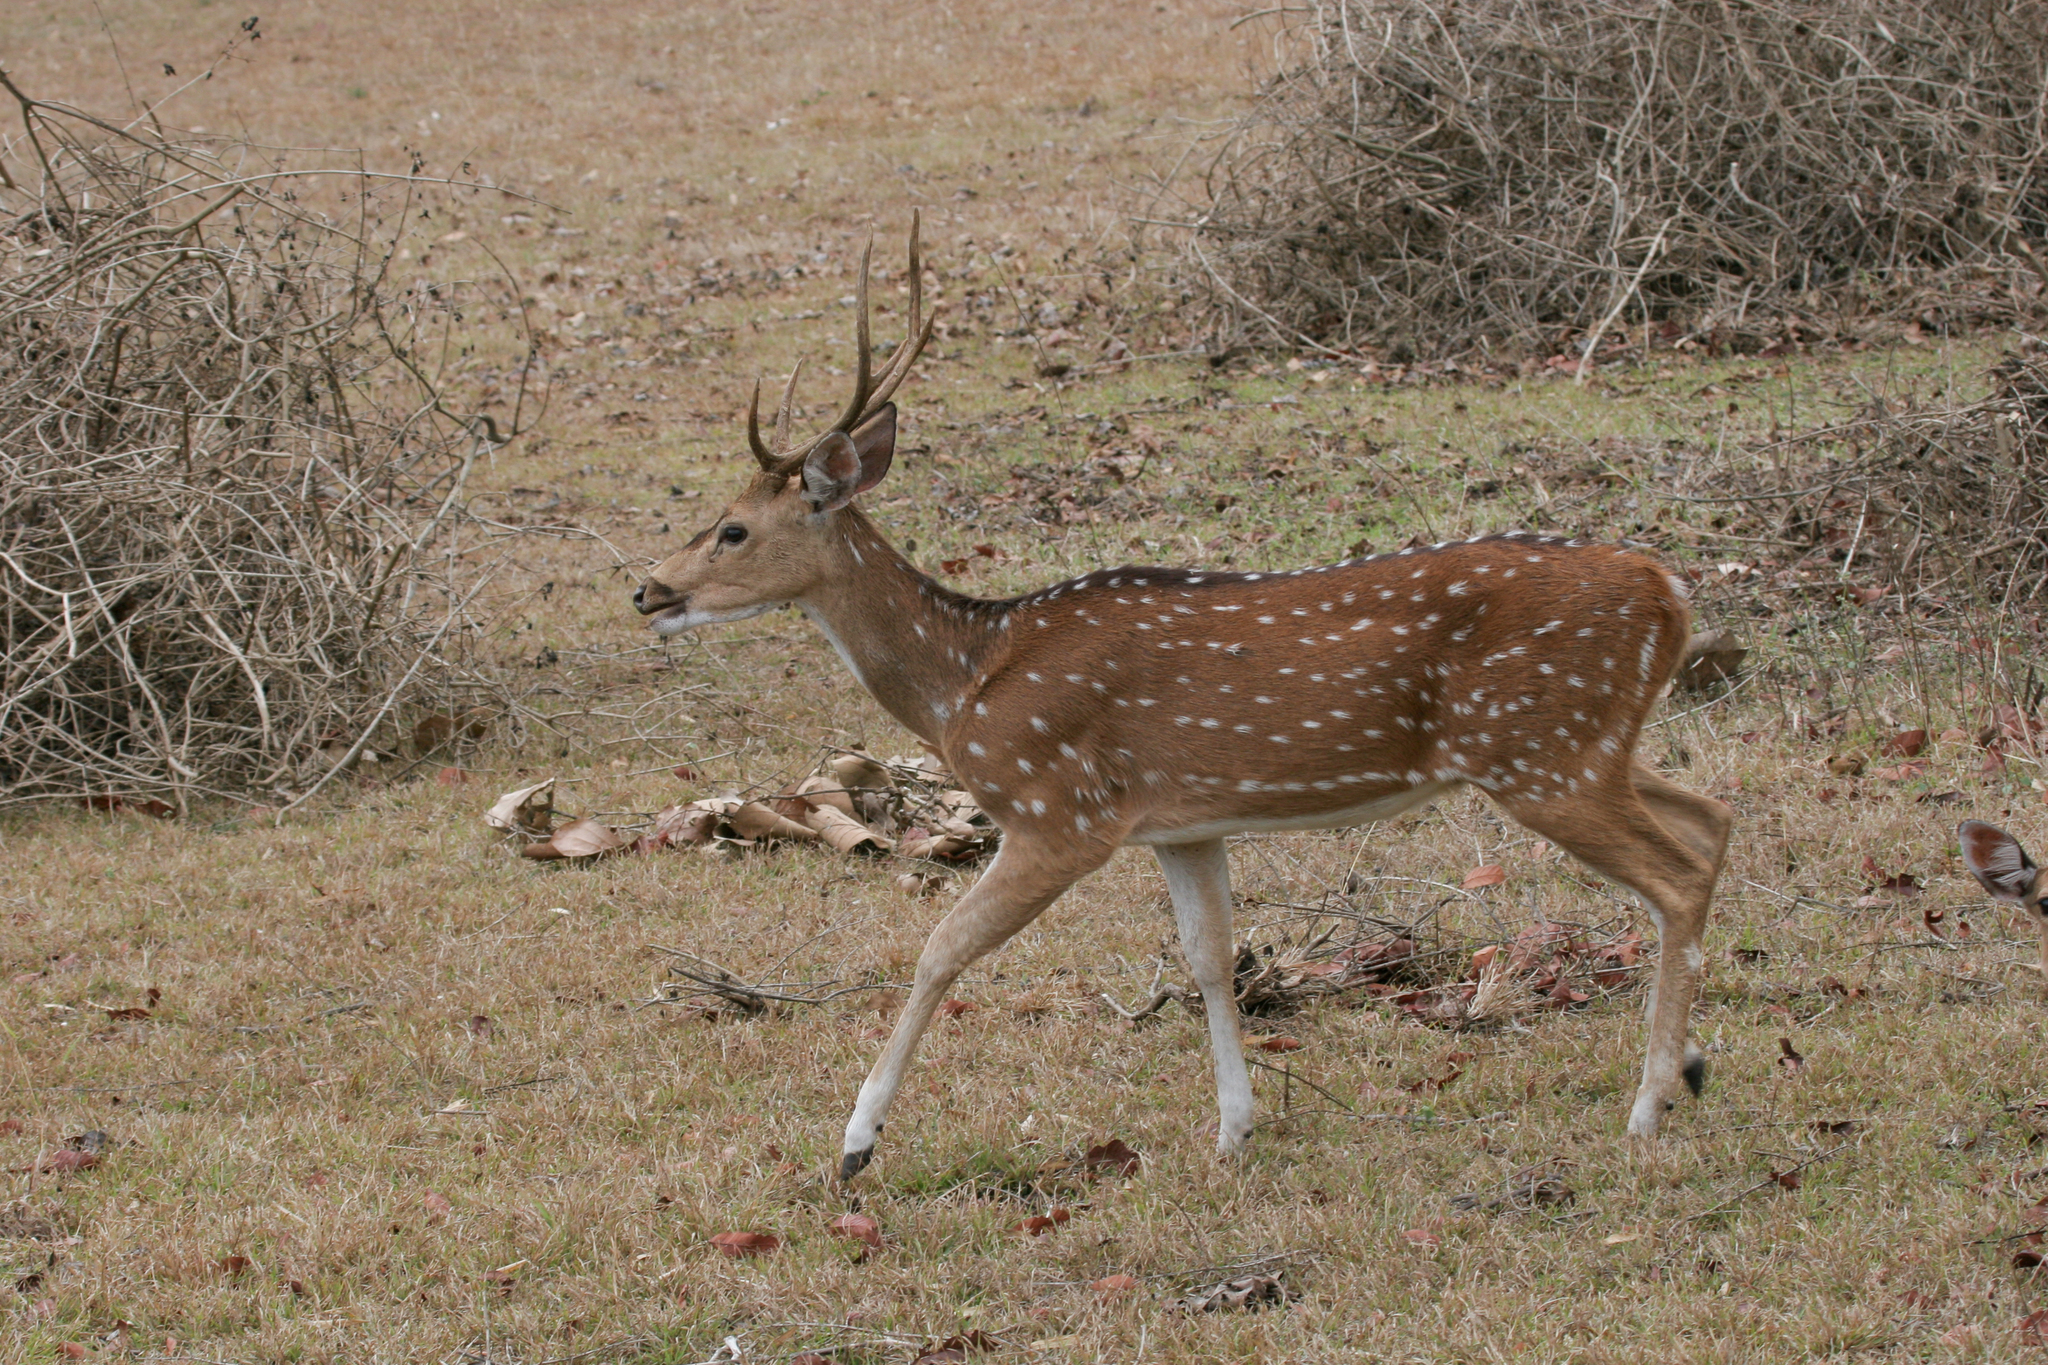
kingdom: Animalia
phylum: Chordata
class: Mammalia
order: Artiodactyla
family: Cervidae
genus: Axis
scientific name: Axis axis
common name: Chital
